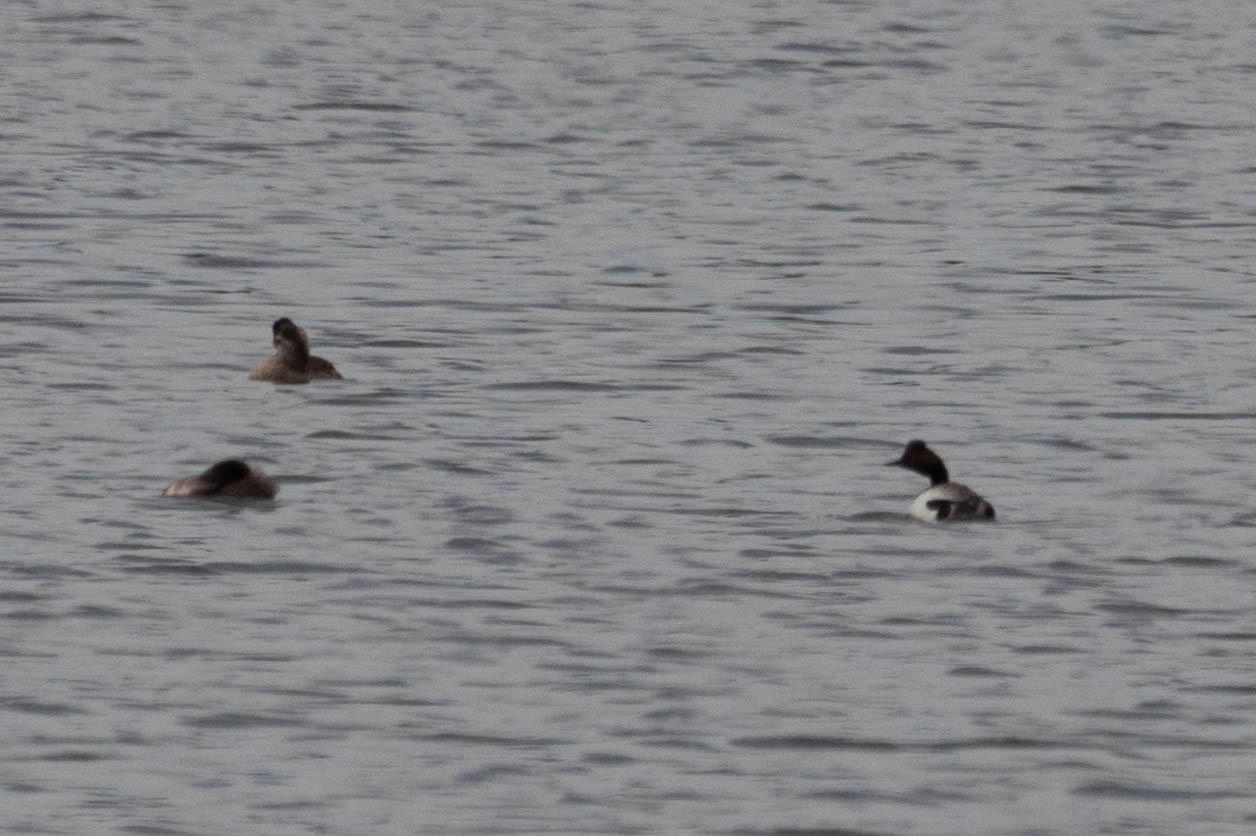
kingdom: Animalia
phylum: Chordata
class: Aves
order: Podicipediformes
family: Podicipedidae
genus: Podiceps
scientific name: Podiceps nigricollis
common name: Black-necked grebe
